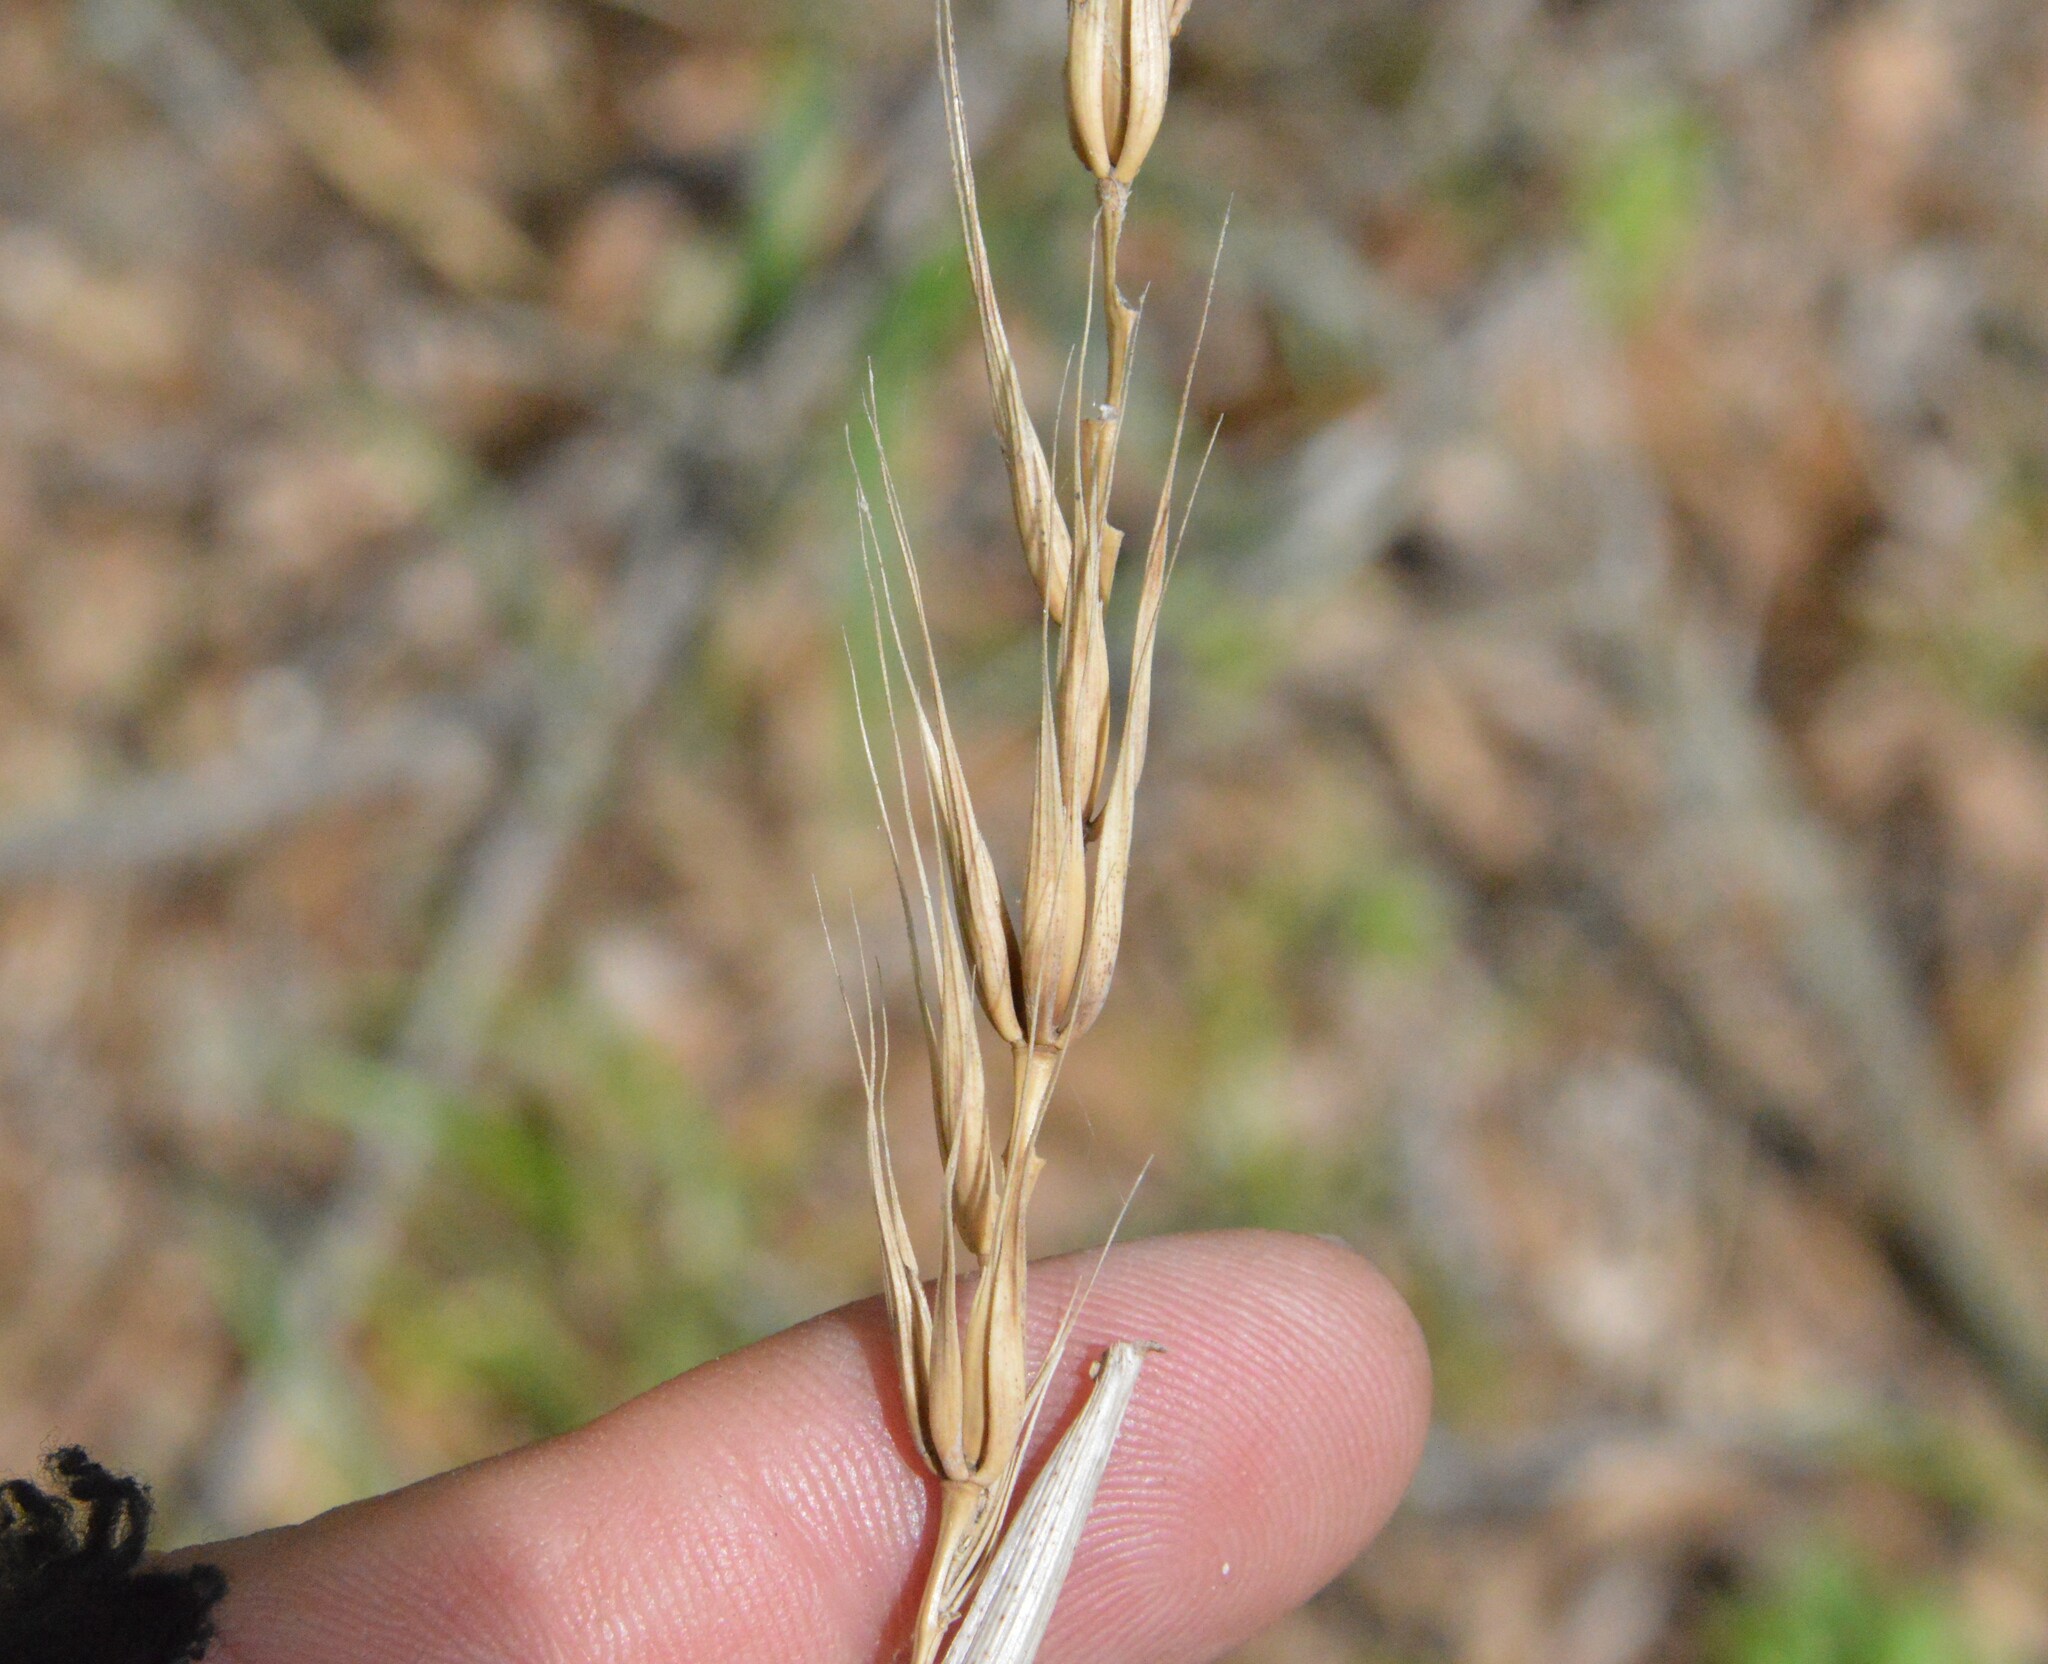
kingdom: Plantae
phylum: Tracheophyta
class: Liliopsida
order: Poales
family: Poaceae
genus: Elymus
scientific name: Elymus virginicus
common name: Common eastern wildrye
